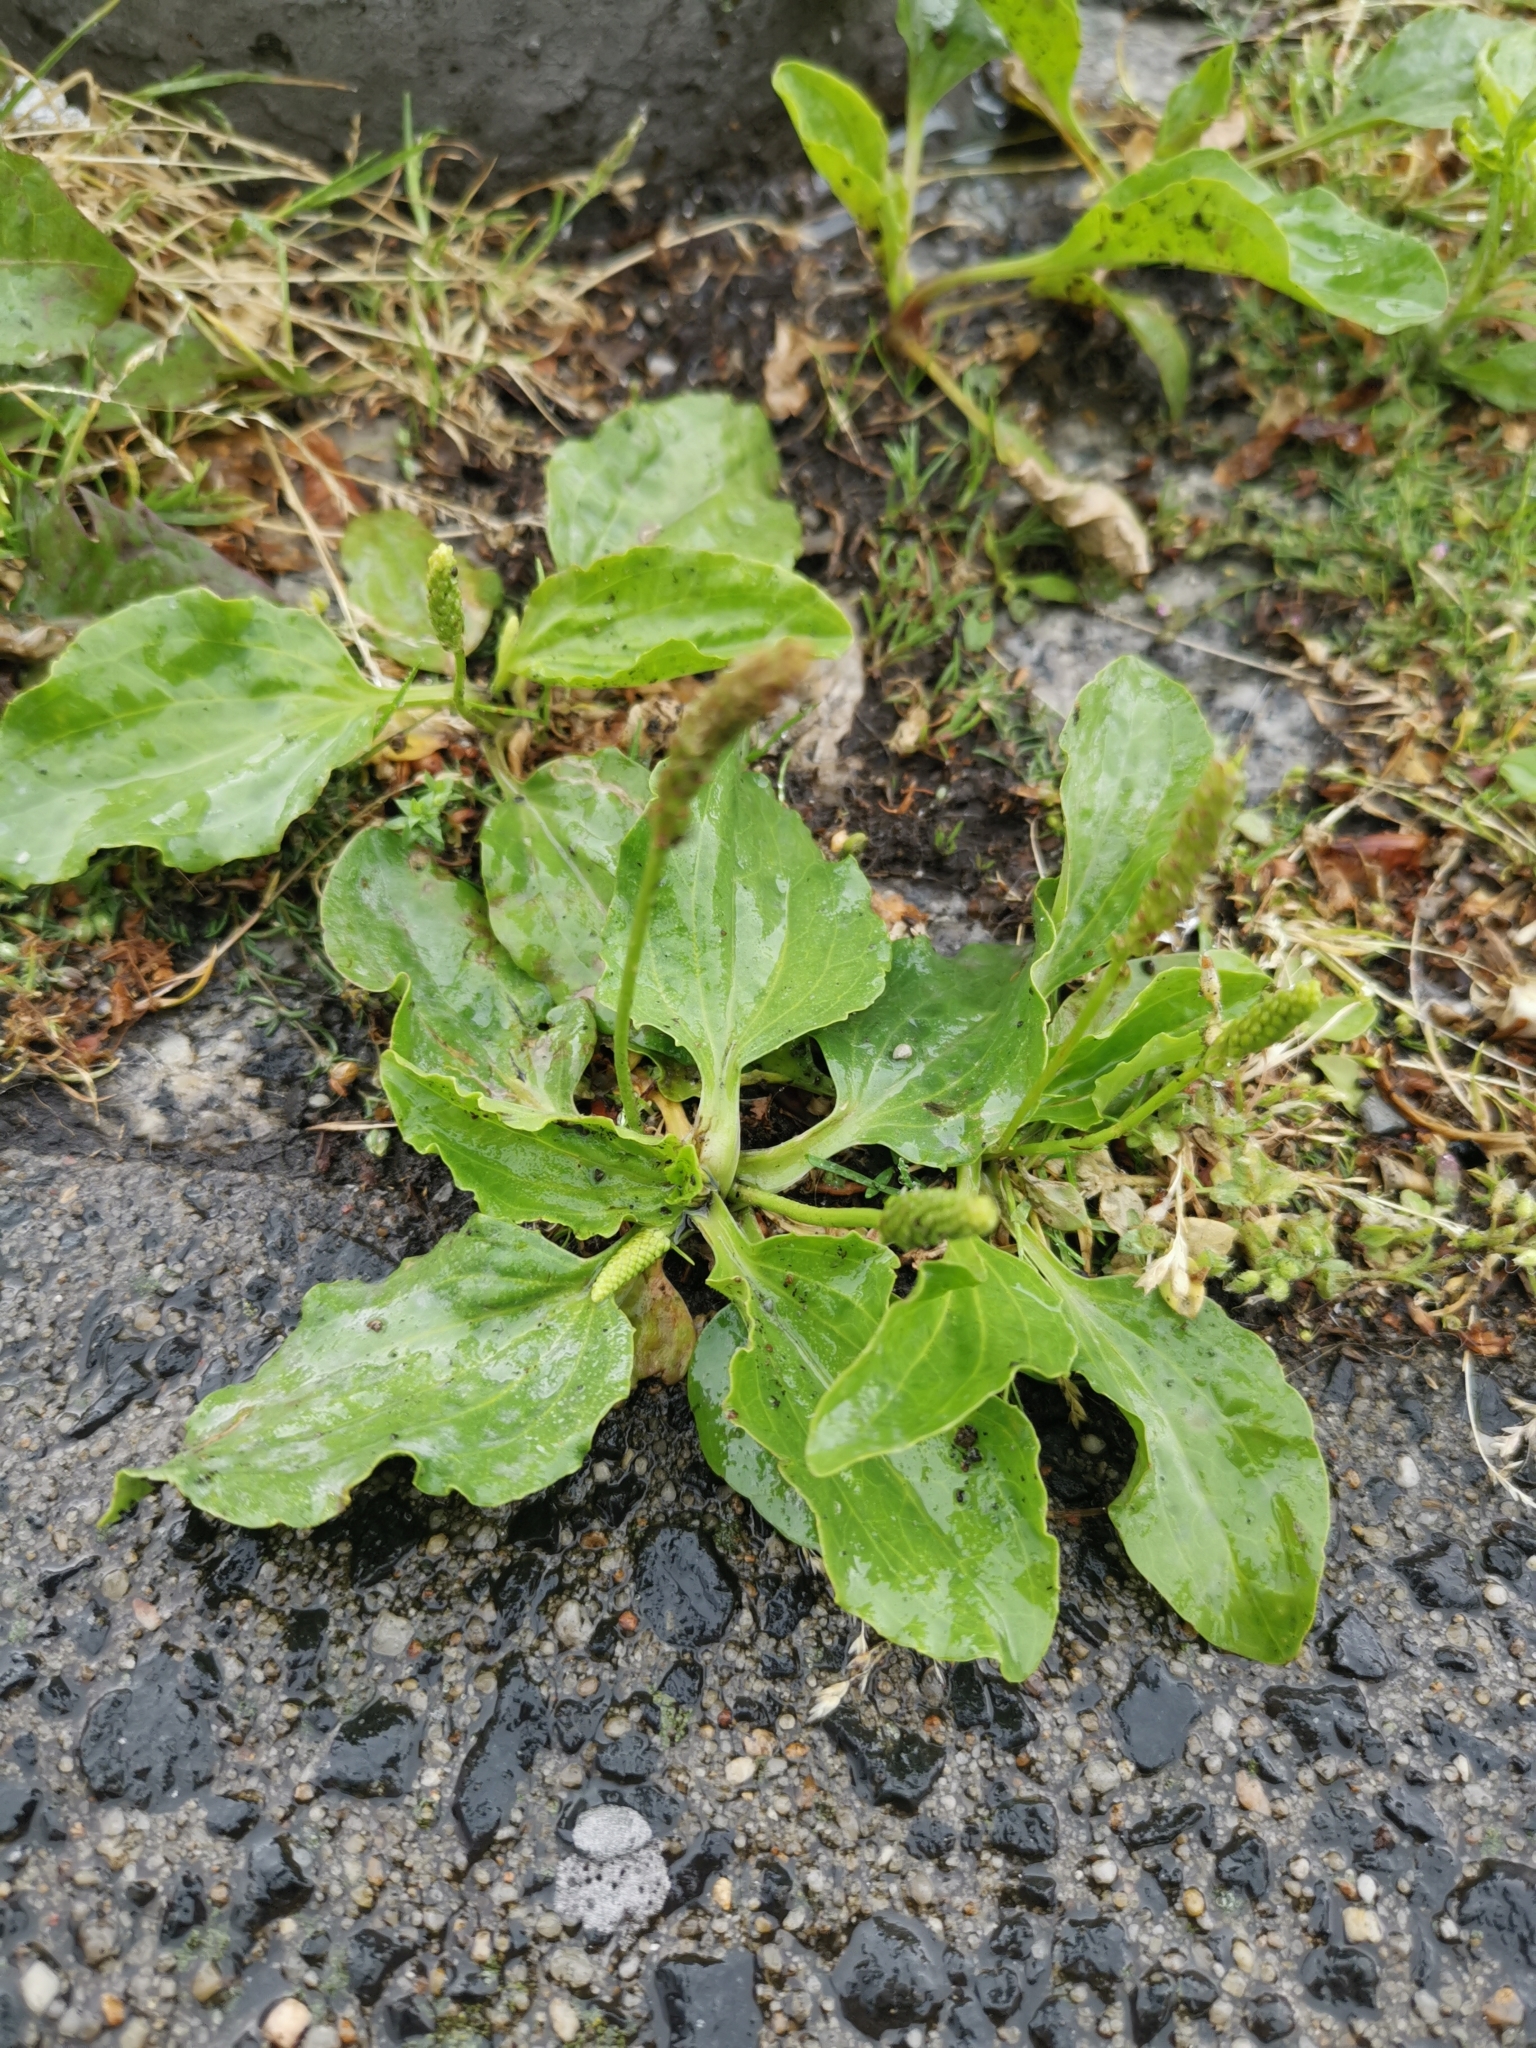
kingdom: Plantae
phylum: Tracheophyta
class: Magnoliopsida
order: Lamiales
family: Plantaginaceae
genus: Plantago
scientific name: Plantago major
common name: Common plantain
